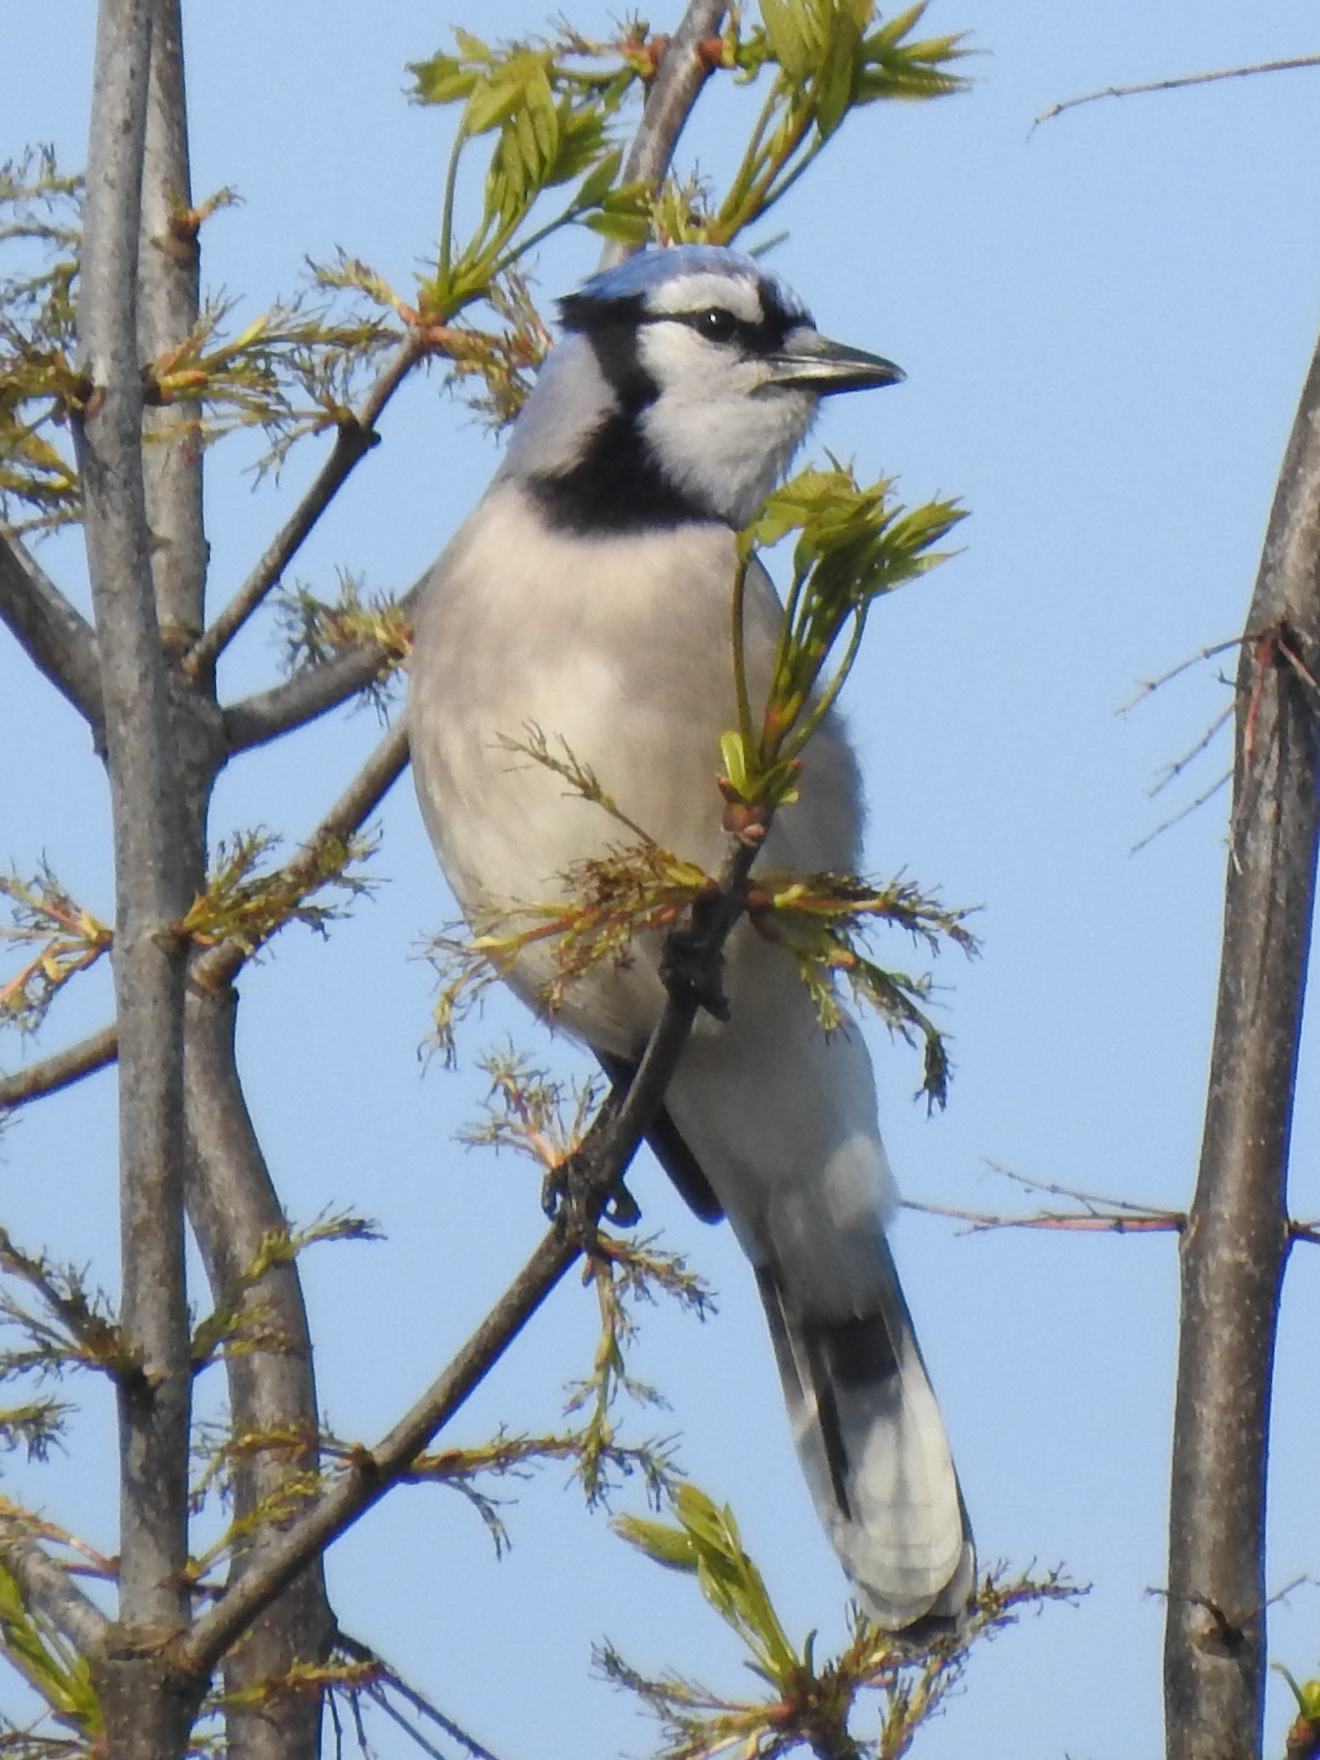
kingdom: Animalia
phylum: Chordata
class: Aves
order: Passeriformes
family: Corvidae
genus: Cyanocitta
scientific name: Cyanocitta cristata
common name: Blue jay
